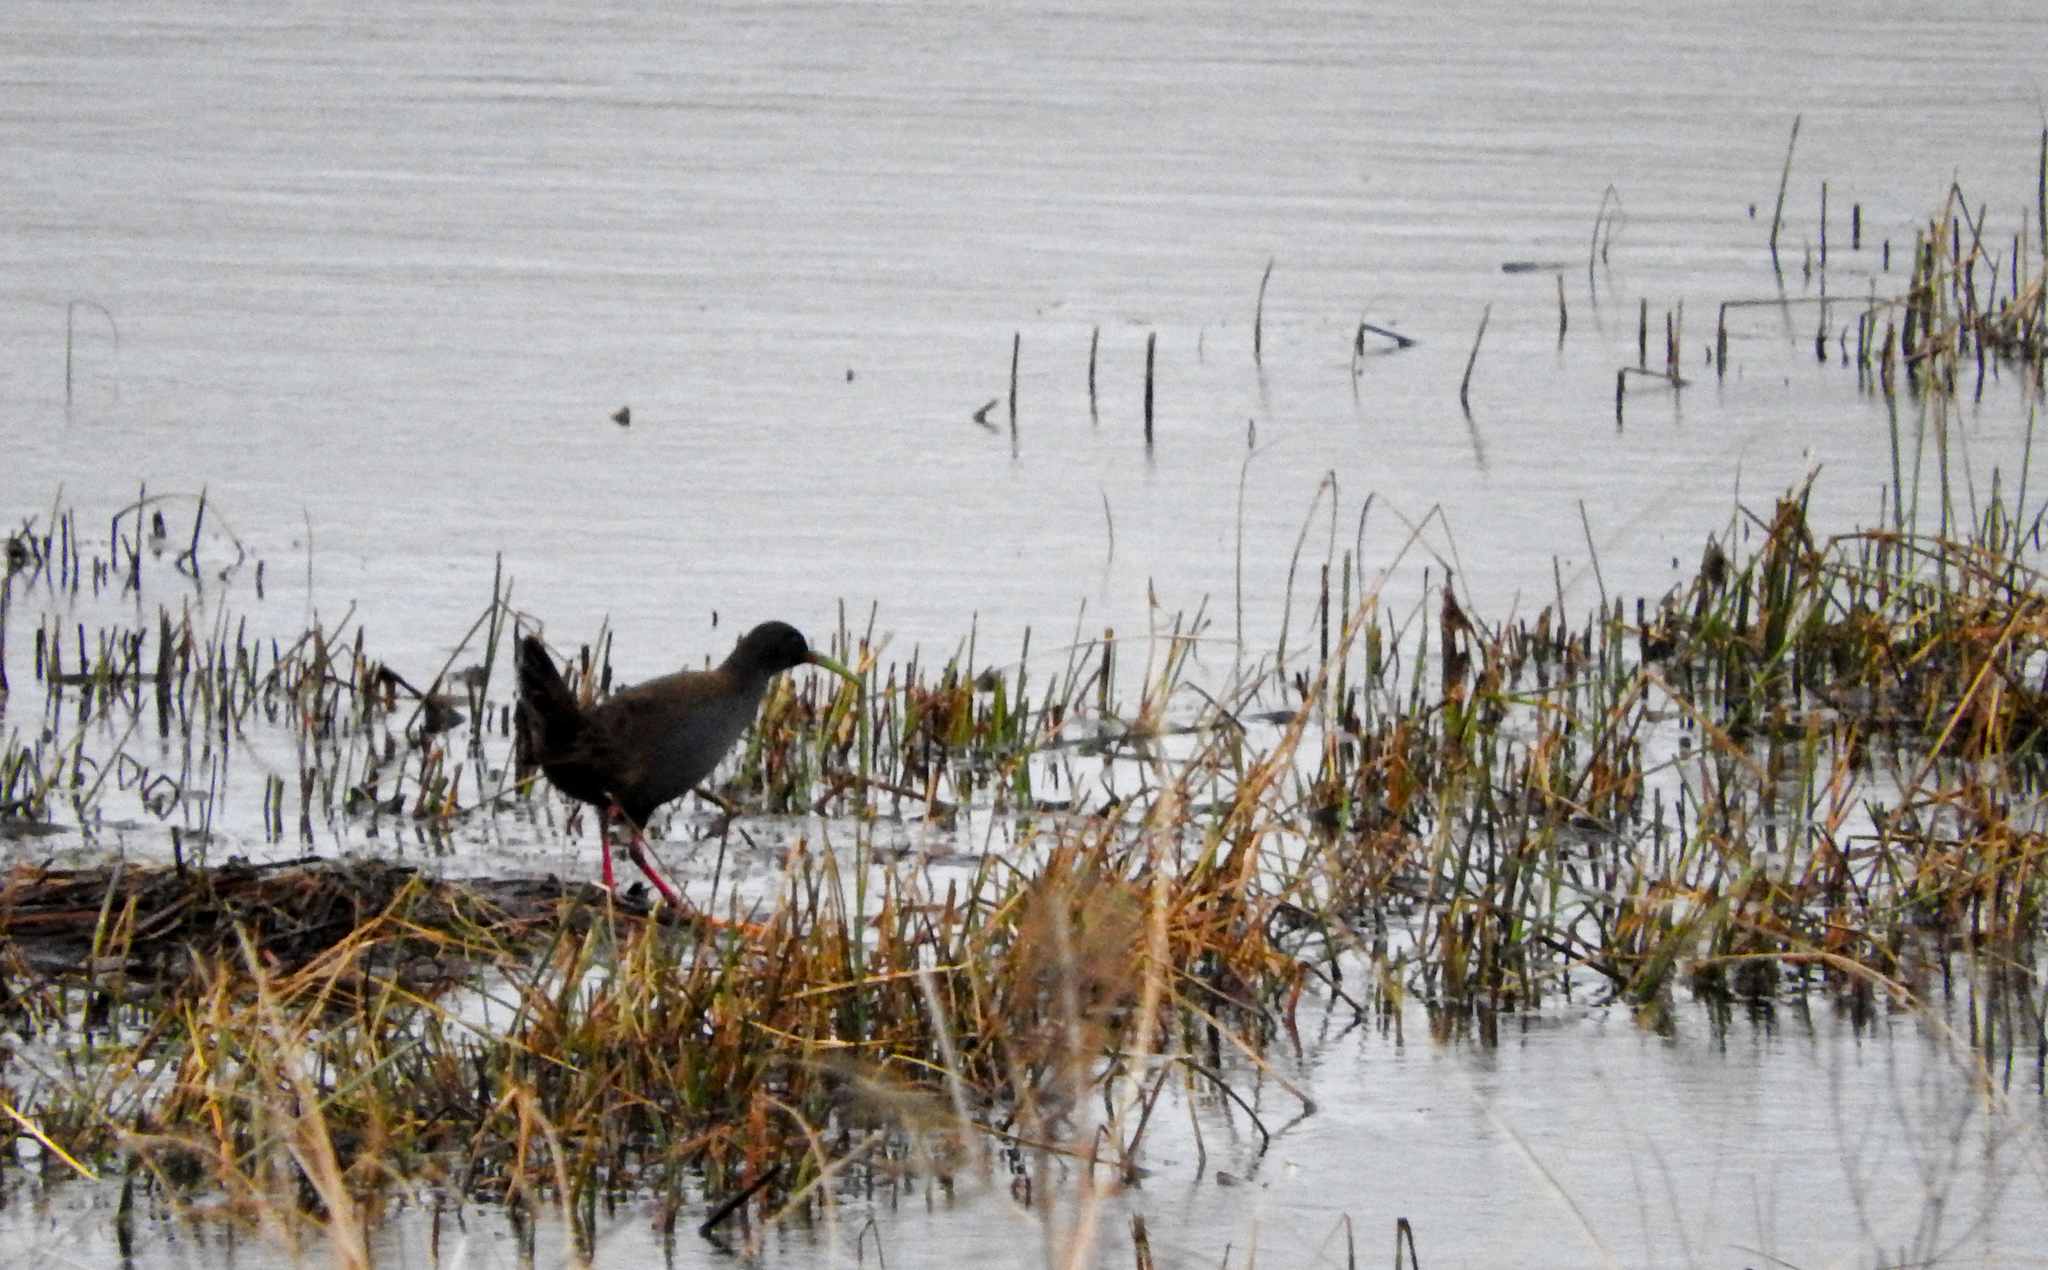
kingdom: Animalia
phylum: Chordata
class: Aves
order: Gruiformes
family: Rallidae
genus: Pardirallus
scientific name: Pardirallus sanguinolentus
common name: Plumbeous rail
